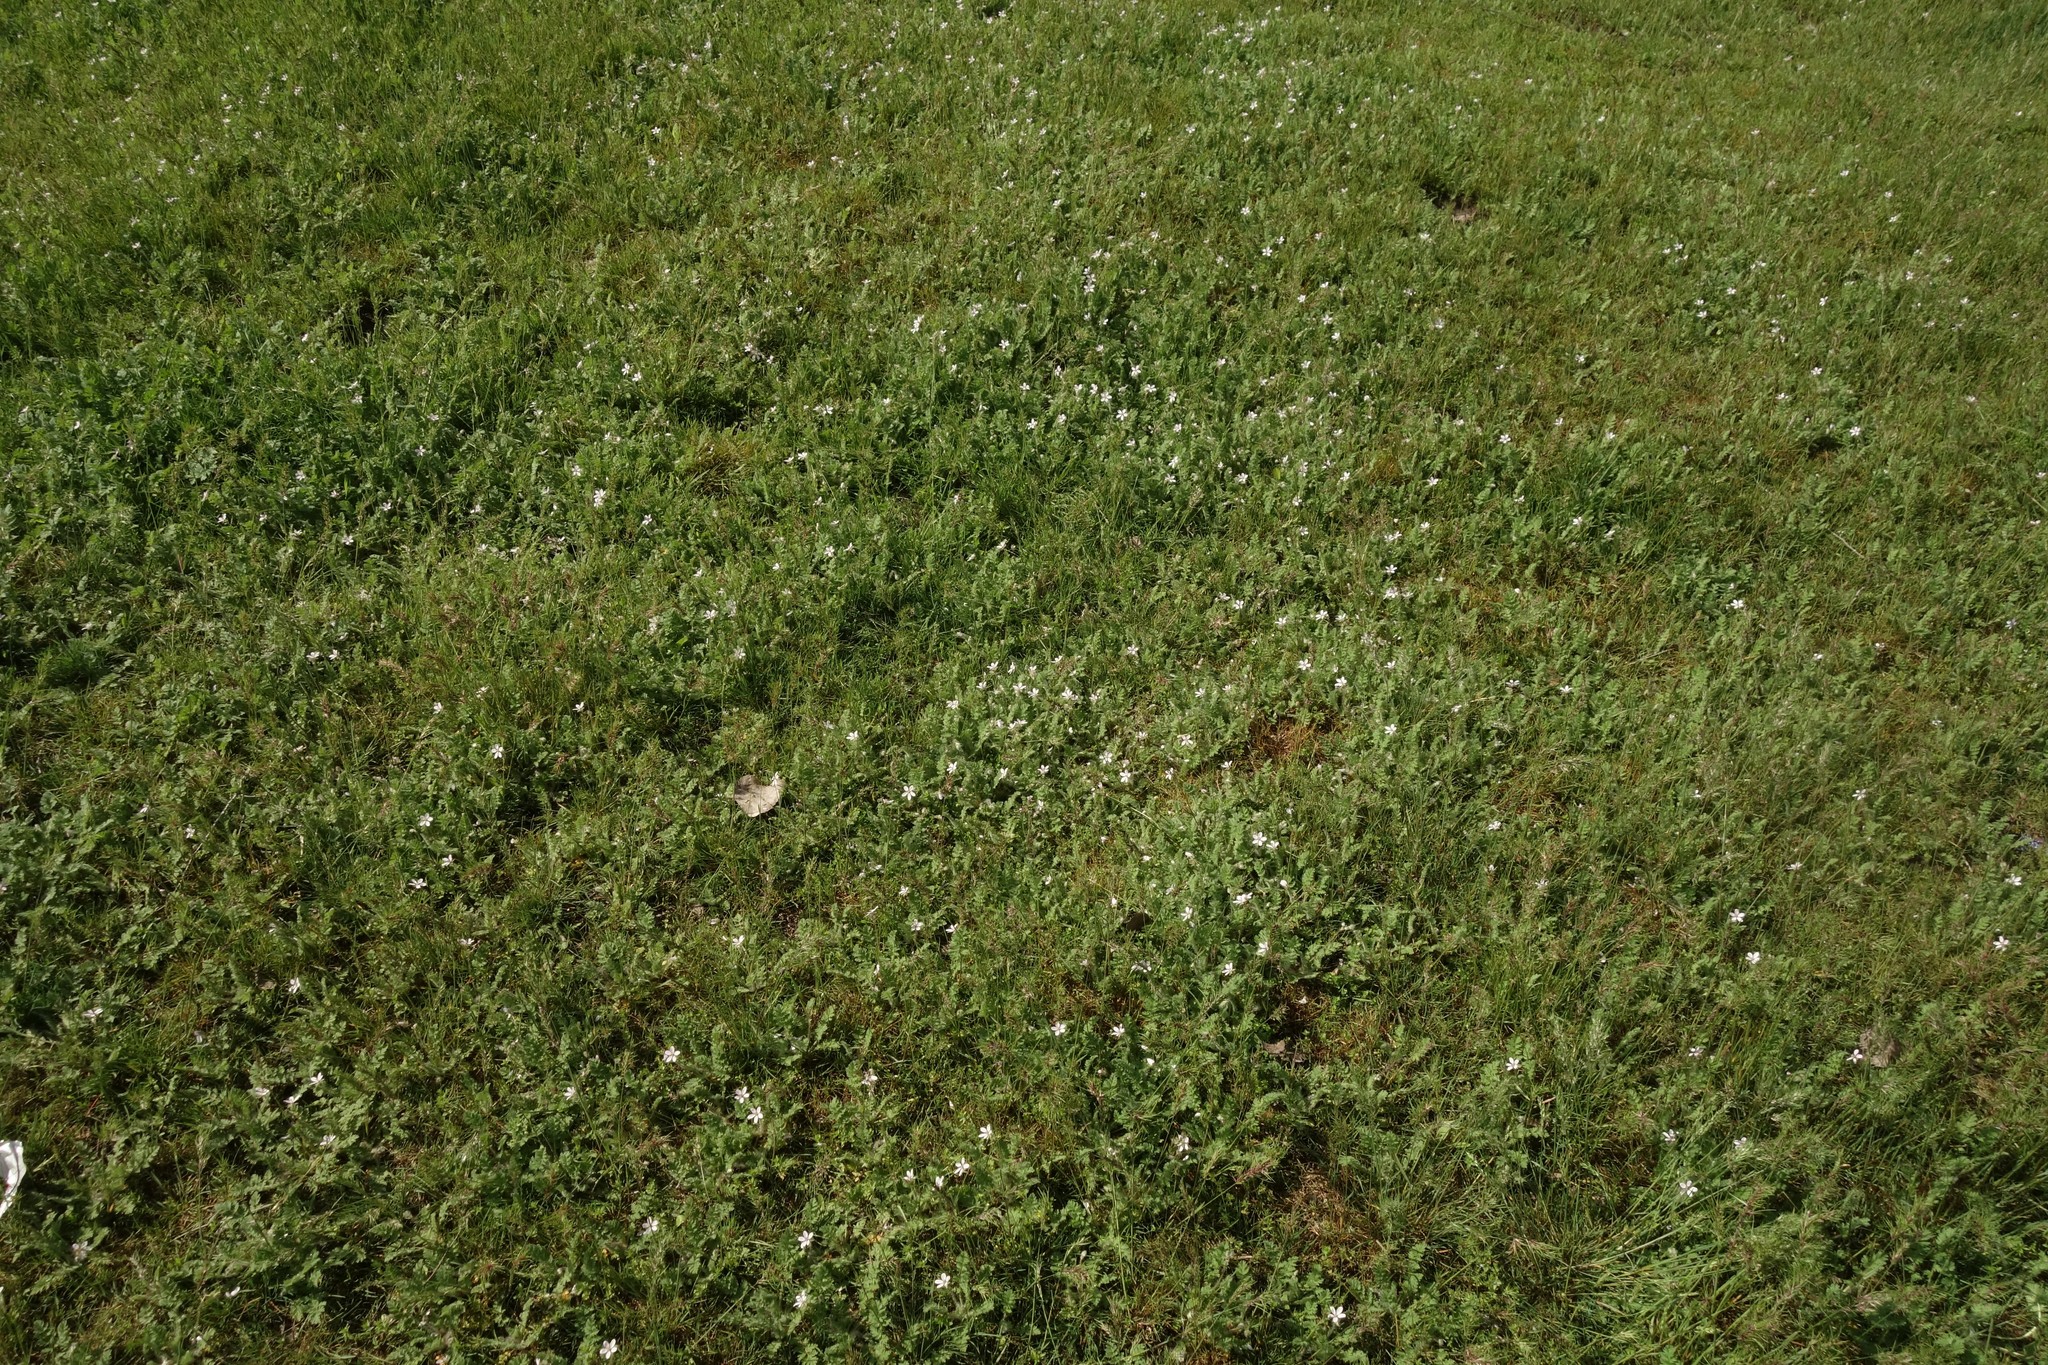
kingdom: Plantae
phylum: Tracheophyta
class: Magnoliopsida
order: Geraniales
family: Geraniaceae
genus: Erodium
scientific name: Erodium cicutarium
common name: Common stork's-bill
